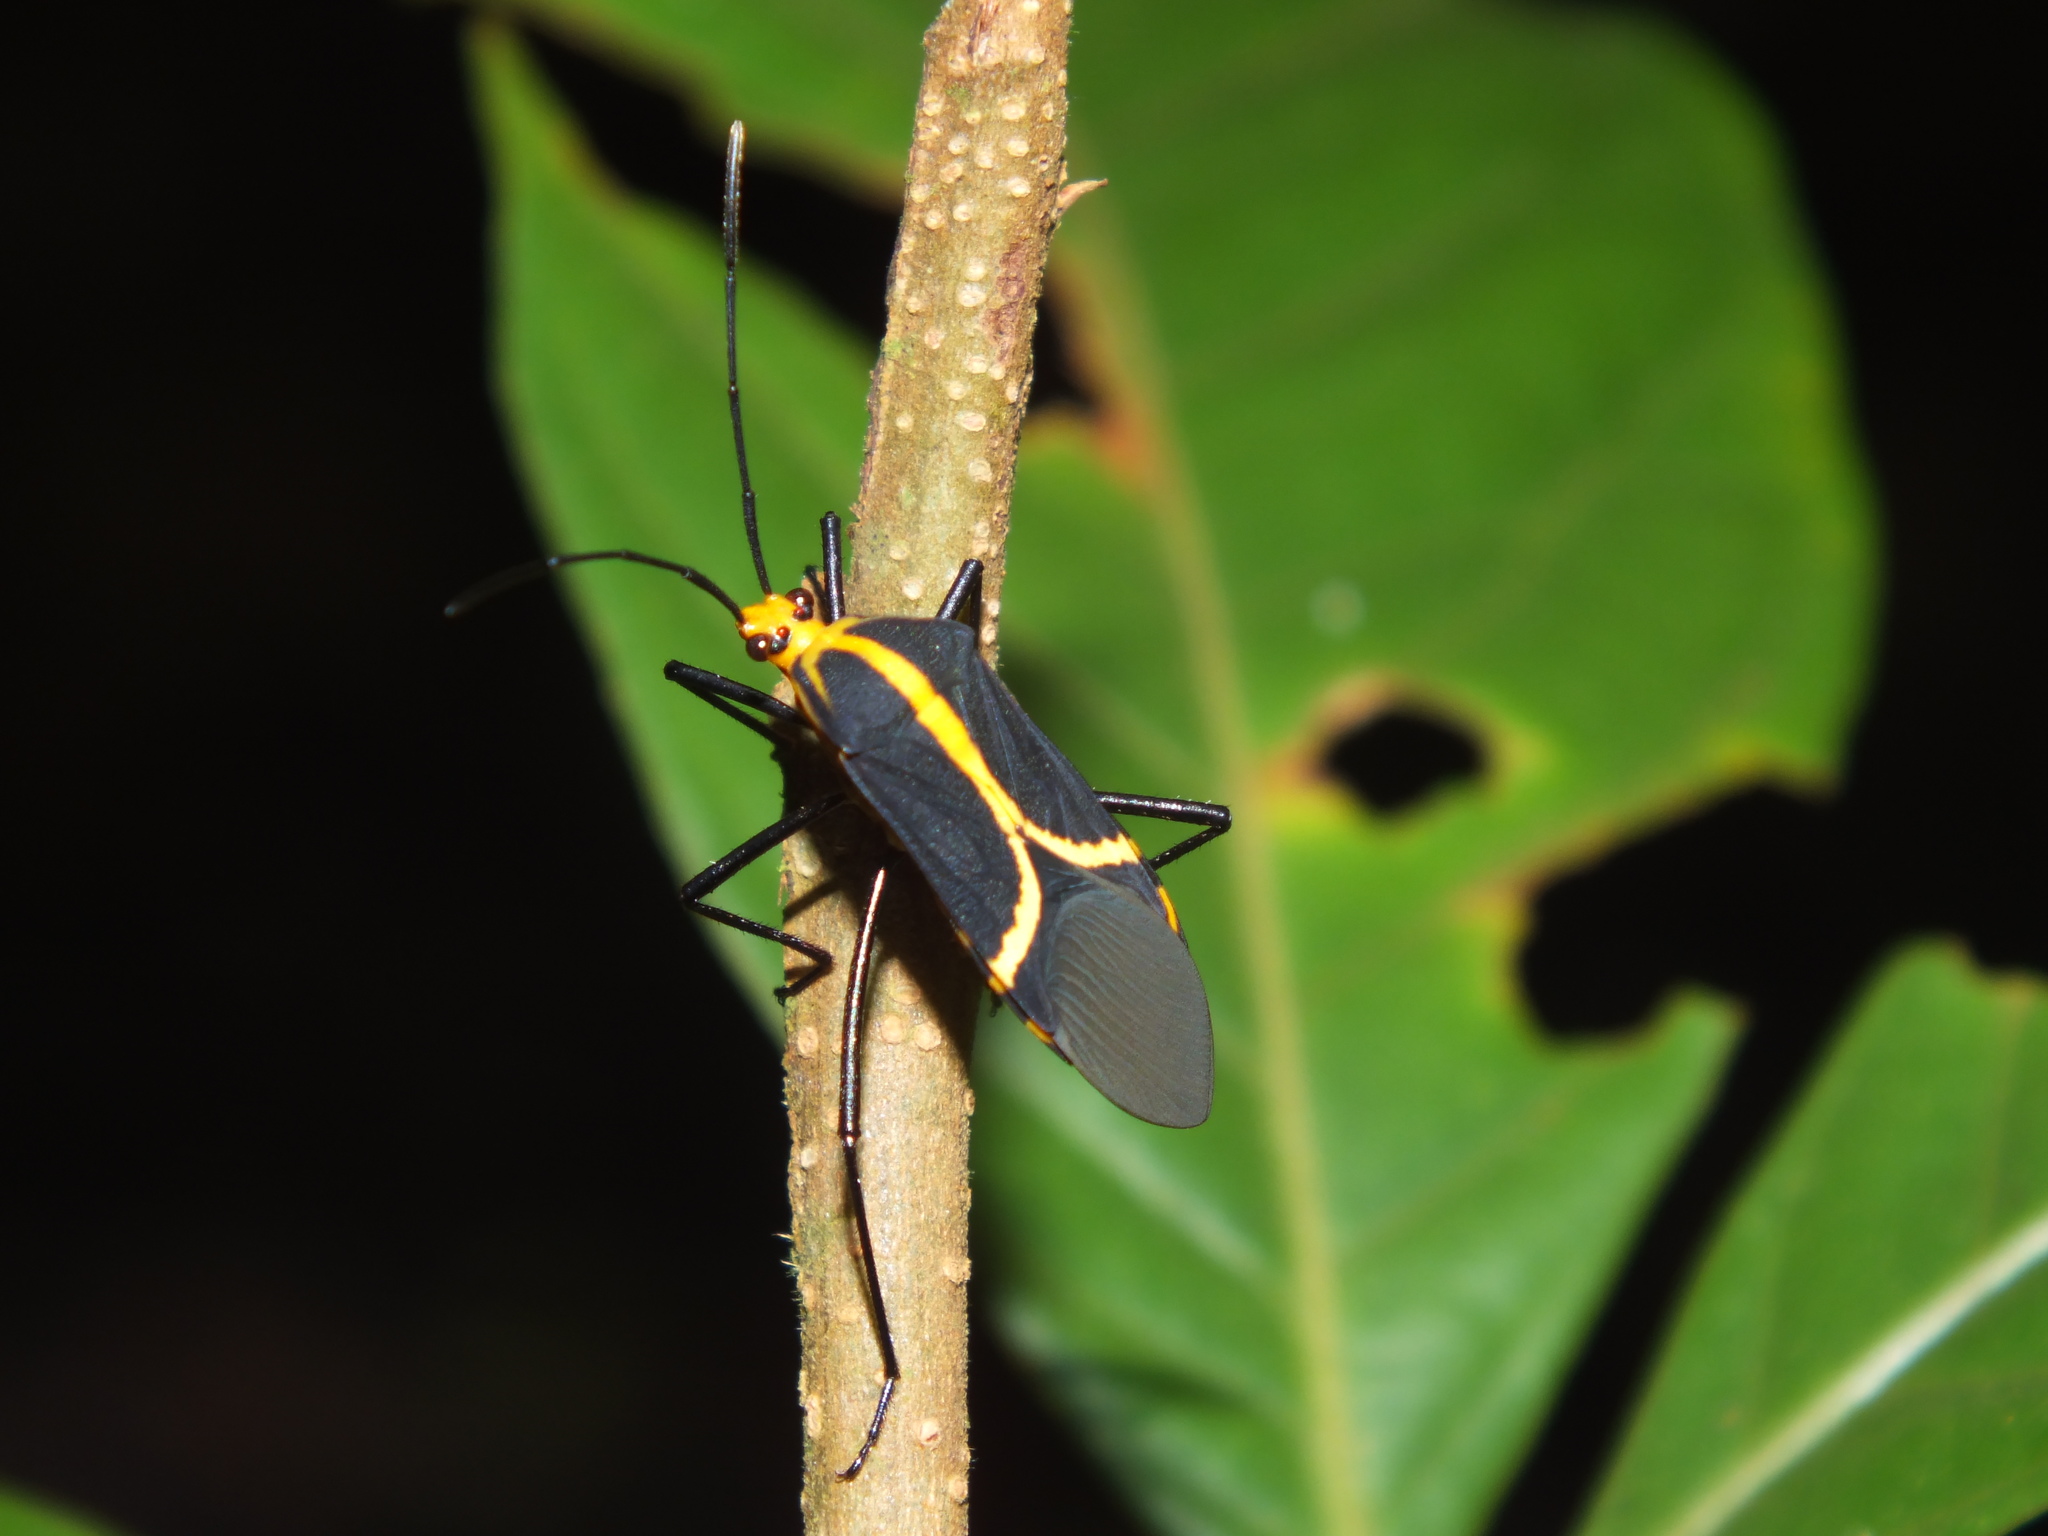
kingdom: Animalia
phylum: Arthropoda
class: Insecta
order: Hemiptera
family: Coreidae
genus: Hypselonotus
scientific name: Hypselonotus linea
